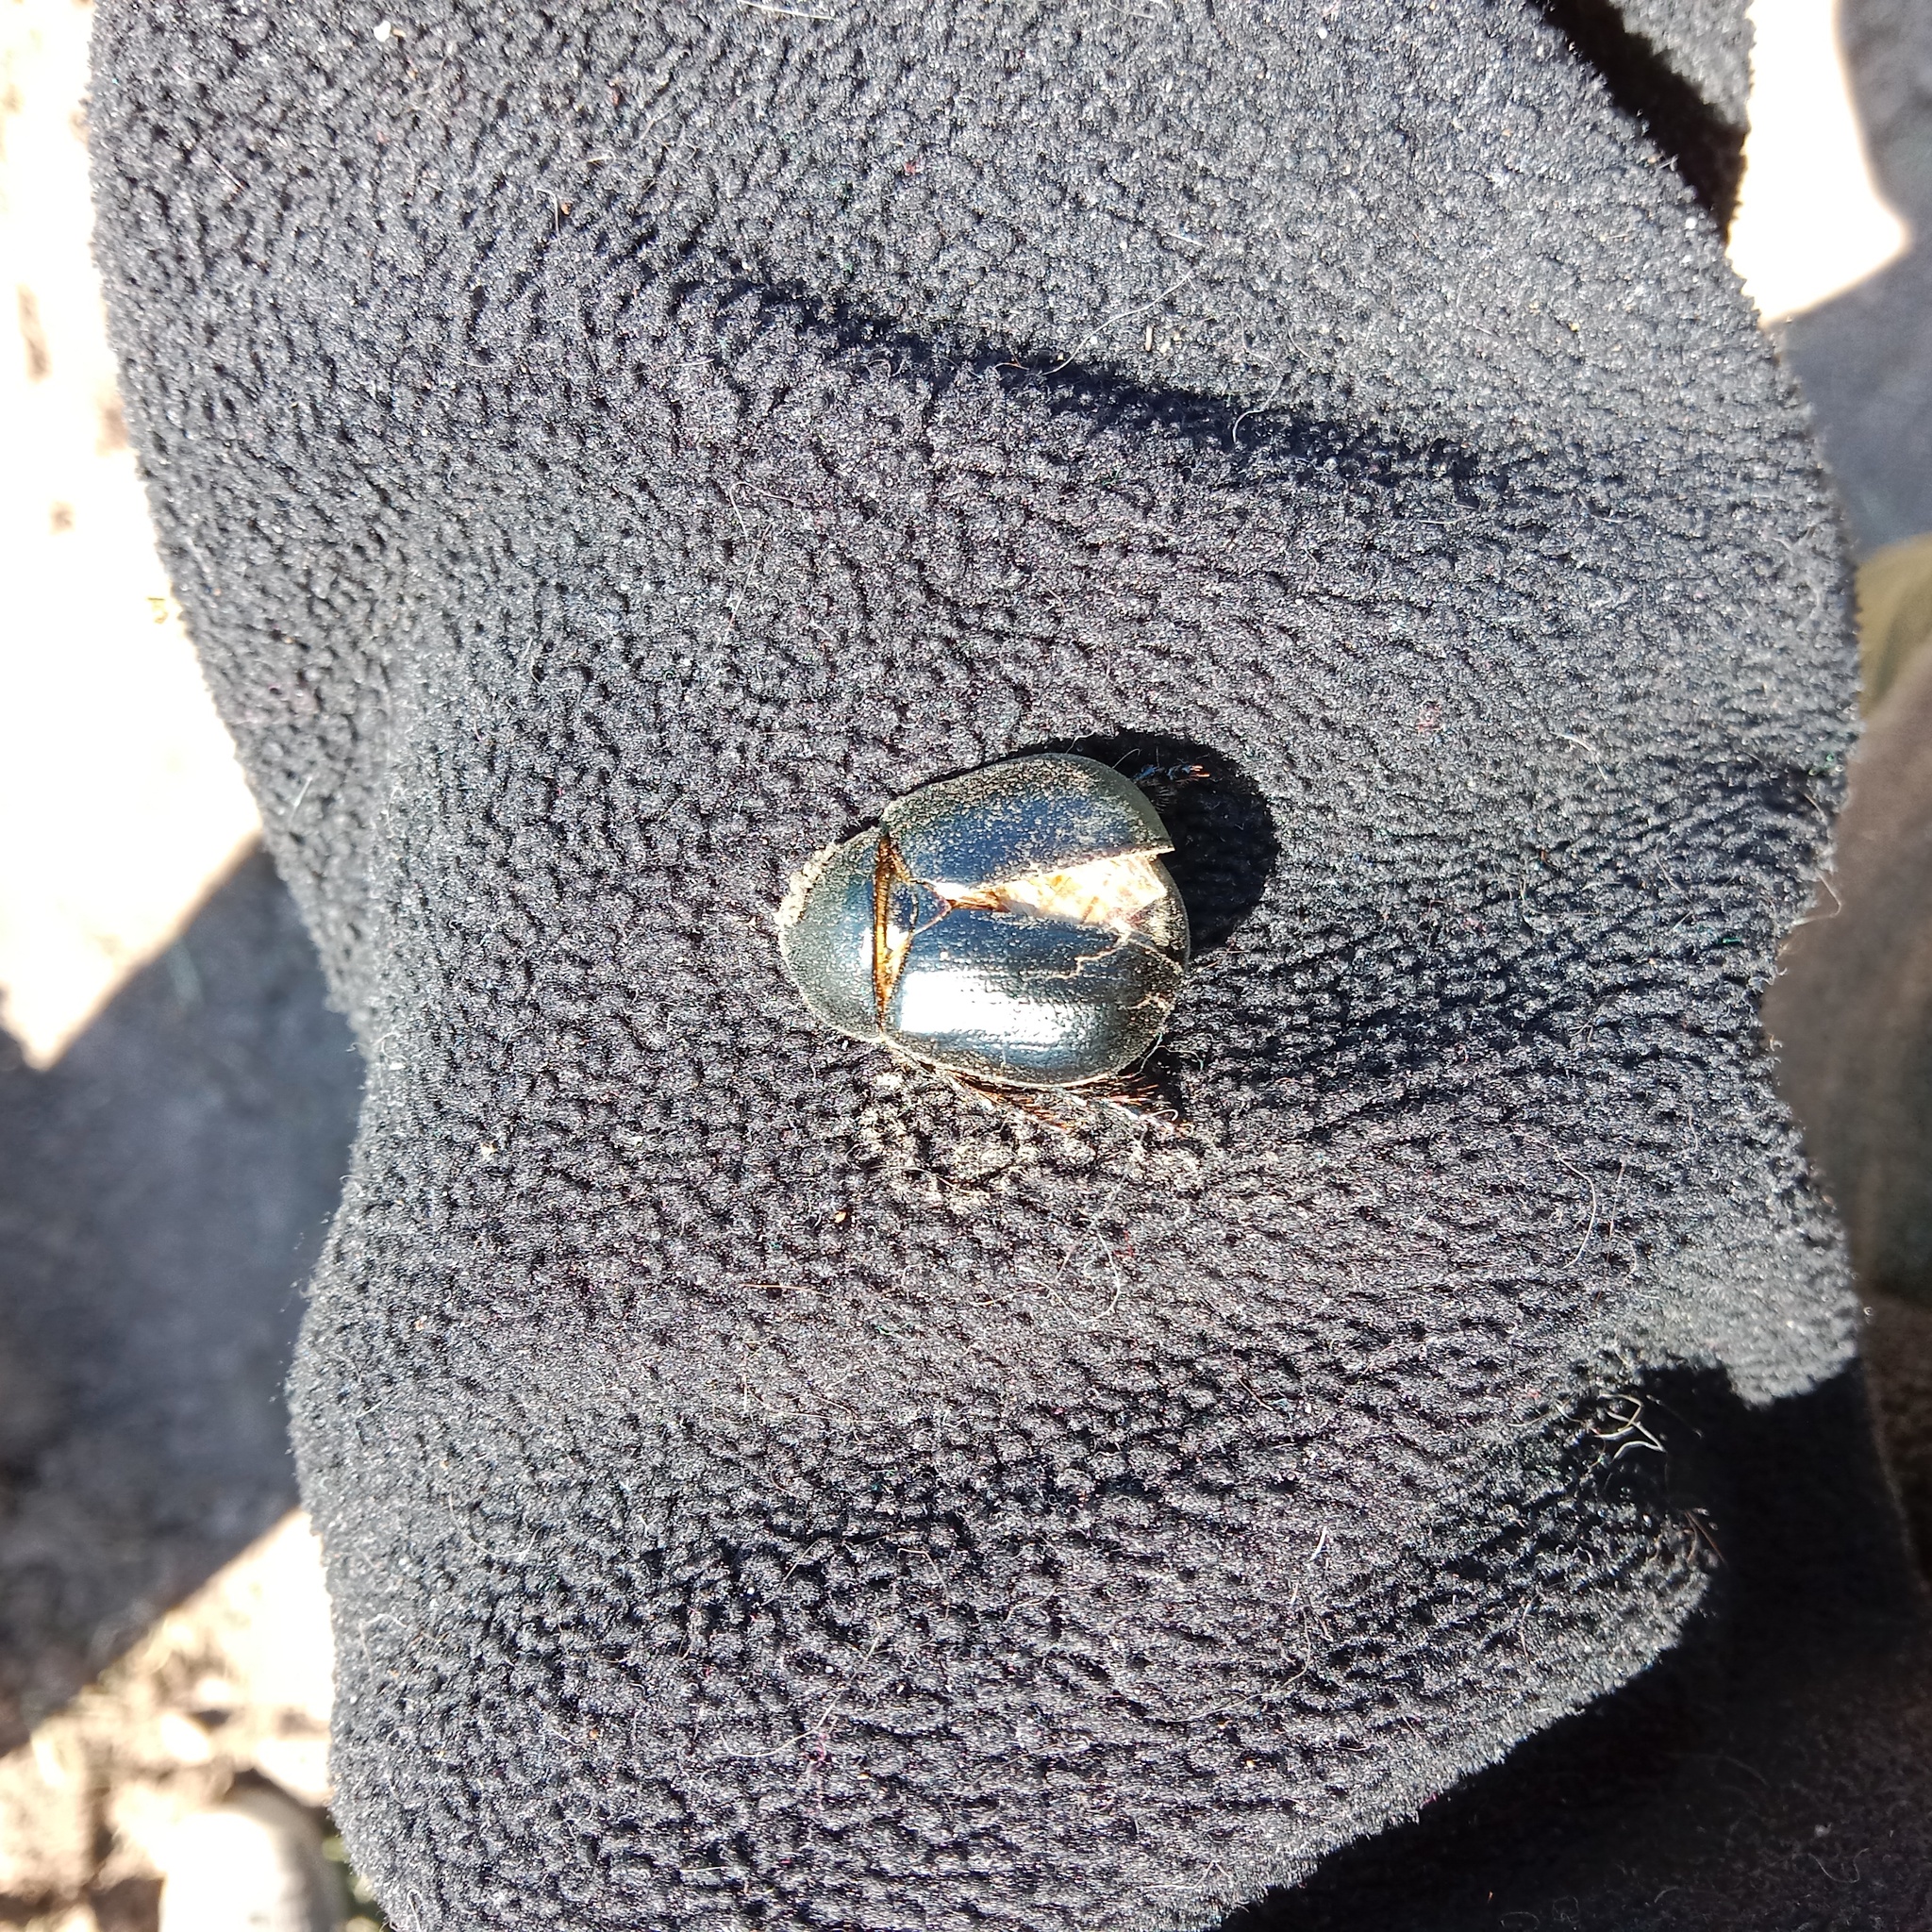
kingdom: Animalia
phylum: Arthropoda
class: Insecta
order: Coleoptera
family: Scarabaeidae
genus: Pentodon
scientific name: Pentodon idiota
